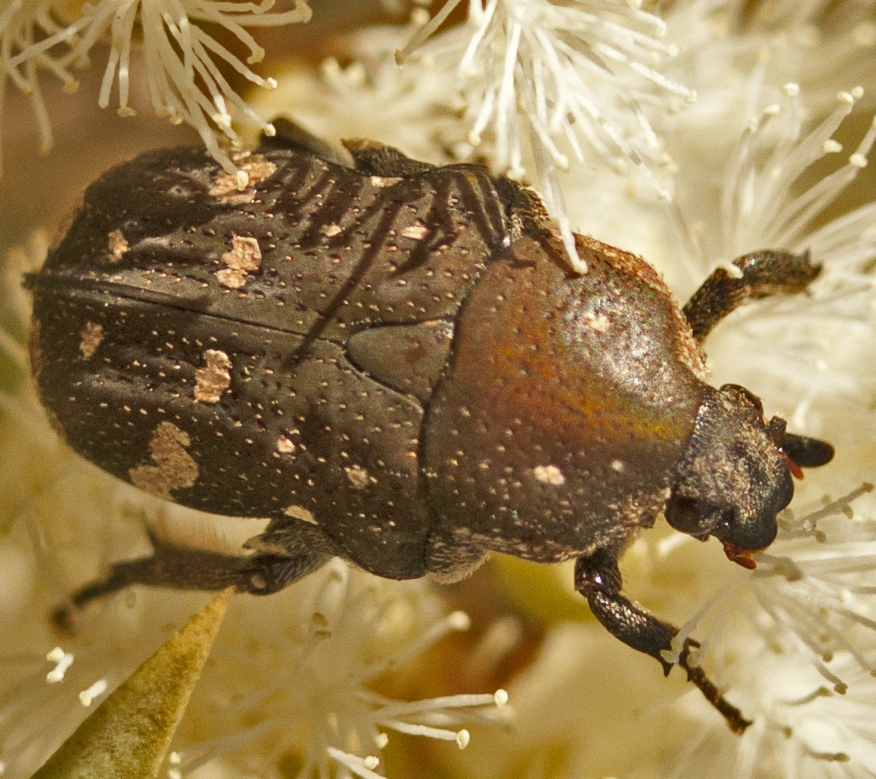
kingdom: Animalia
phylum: Arthropoda
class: Insecta
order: Coleoptera
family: Scarabaeidae
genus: Protaetia
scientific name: Protaetia fusca
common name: Mango flower beetle
